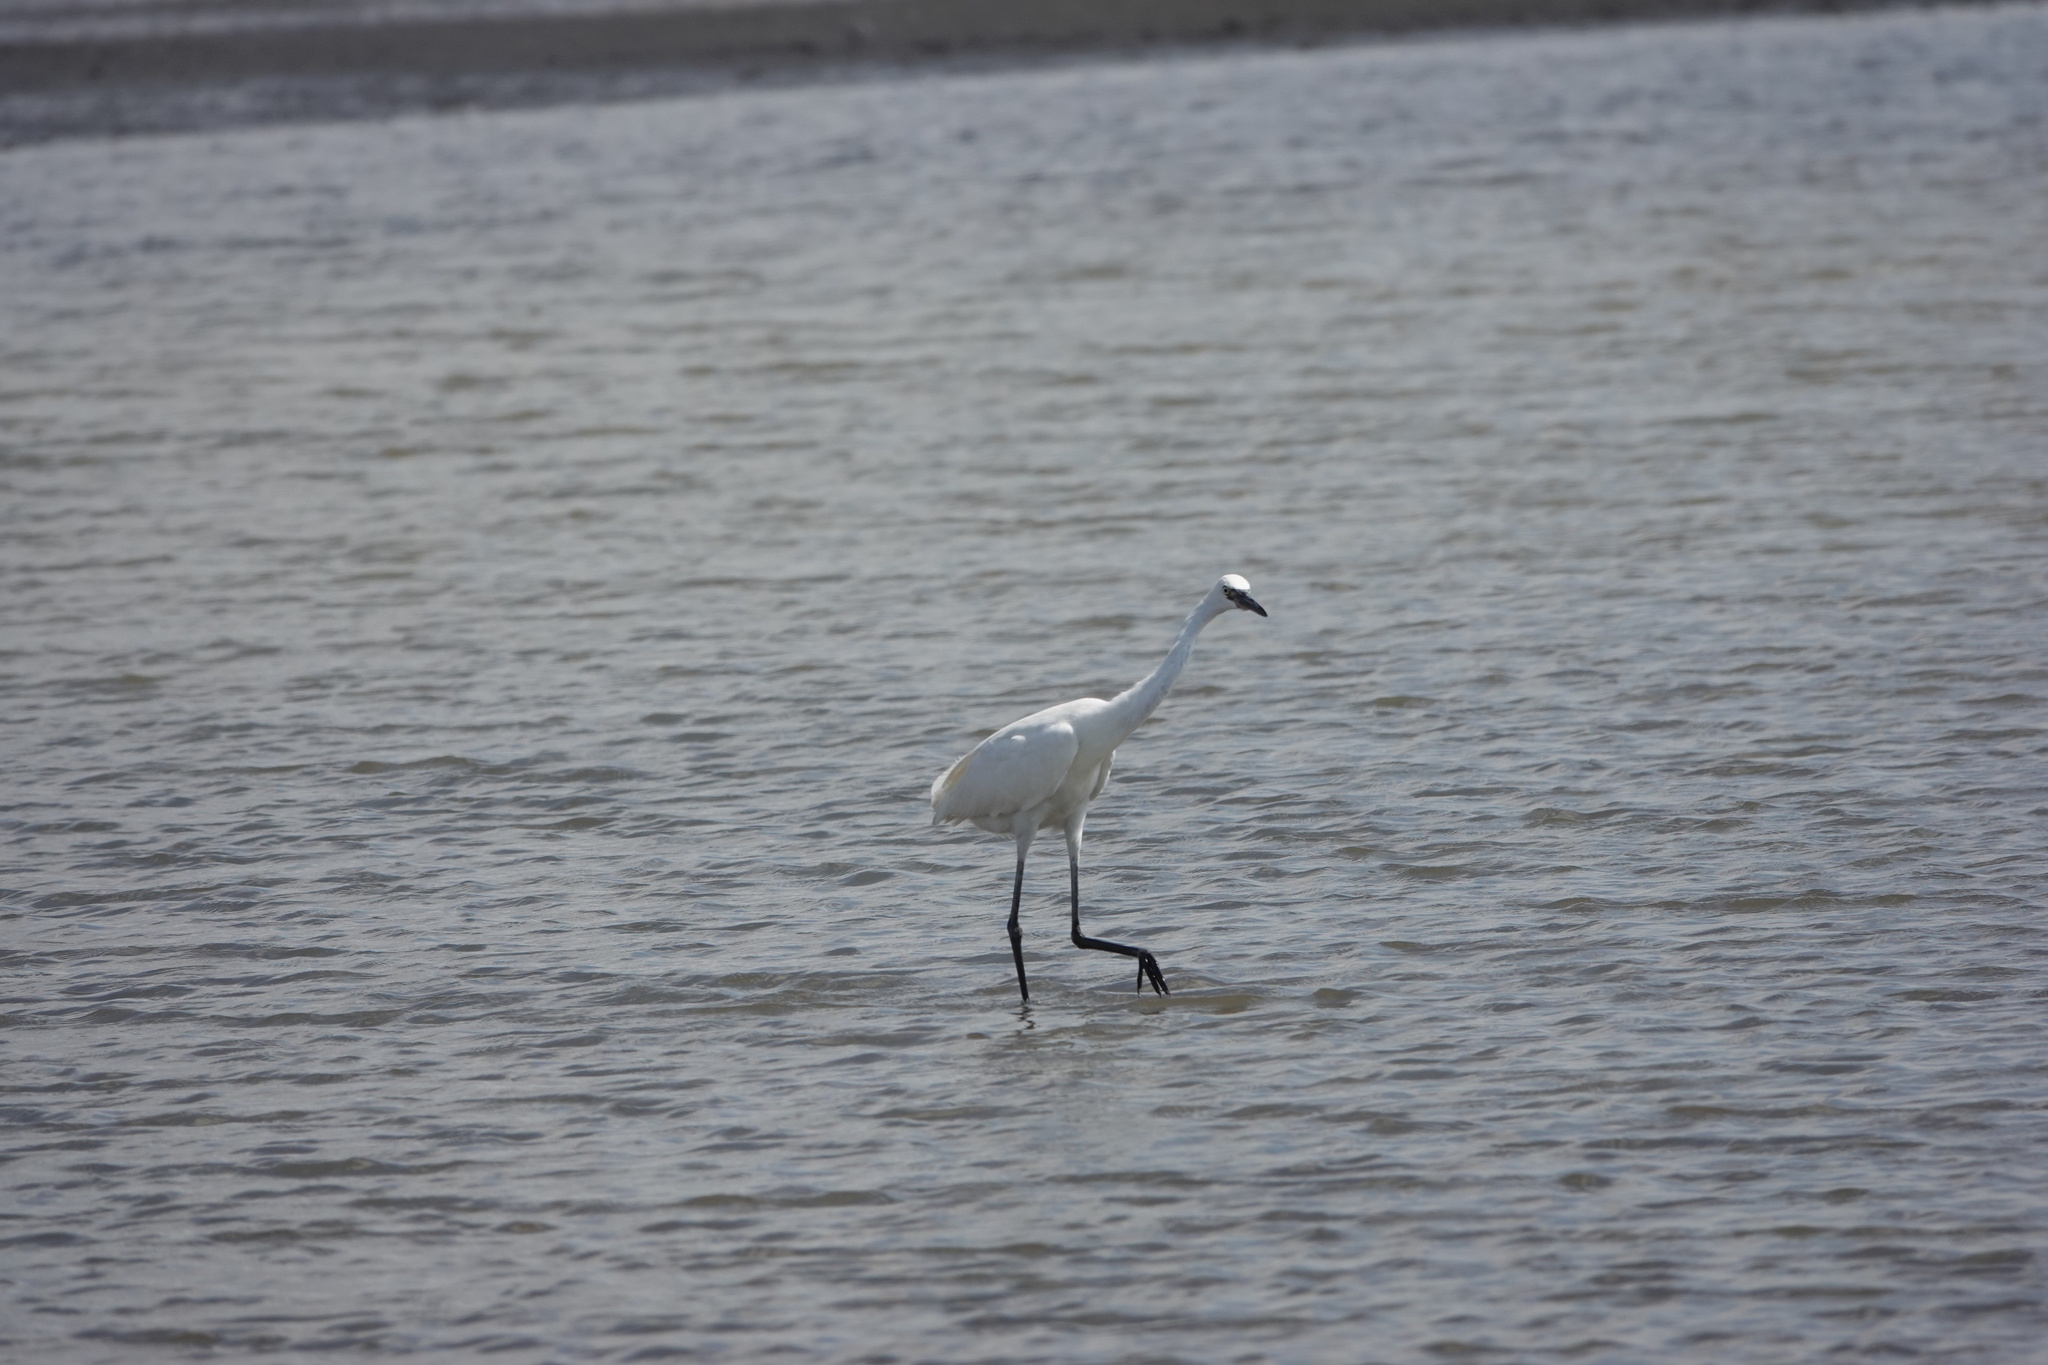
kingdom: Animalia
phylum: Chordata
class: Aves
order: Pelecaniformes
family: Ardeidae
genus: Egretta
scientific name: Egretta rufescens
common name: Reddish egret
